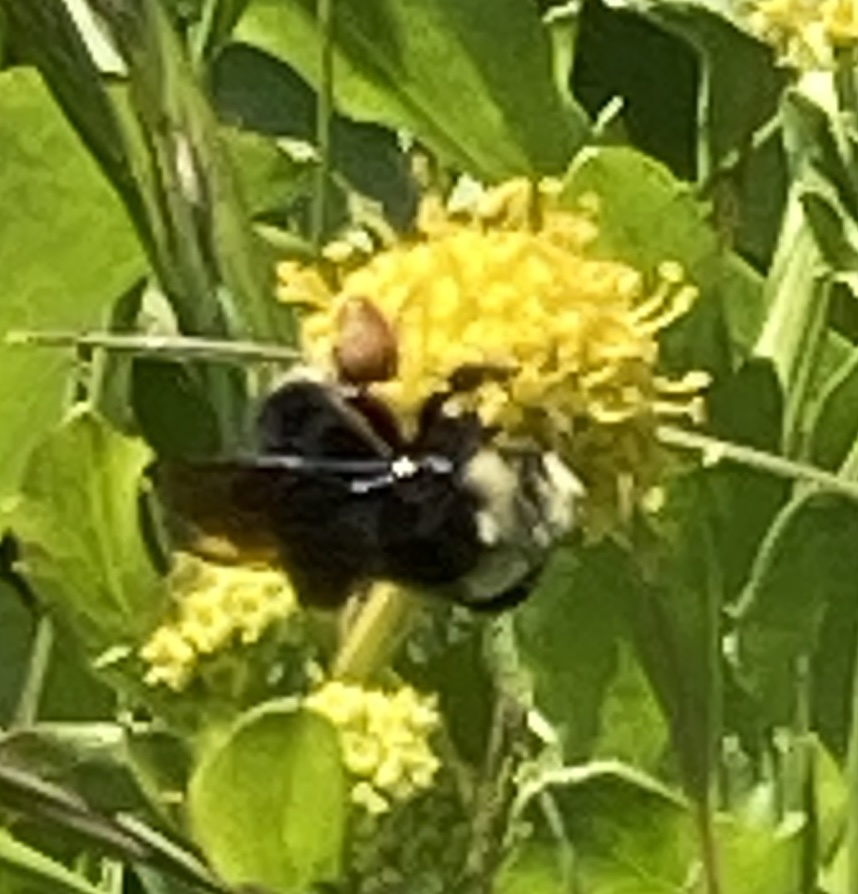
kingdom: Animalia
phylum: Arthropoda
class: Insecta
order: Hymenoptera
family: Apidae
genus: Pyrobombus
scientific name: Pyrobombus
